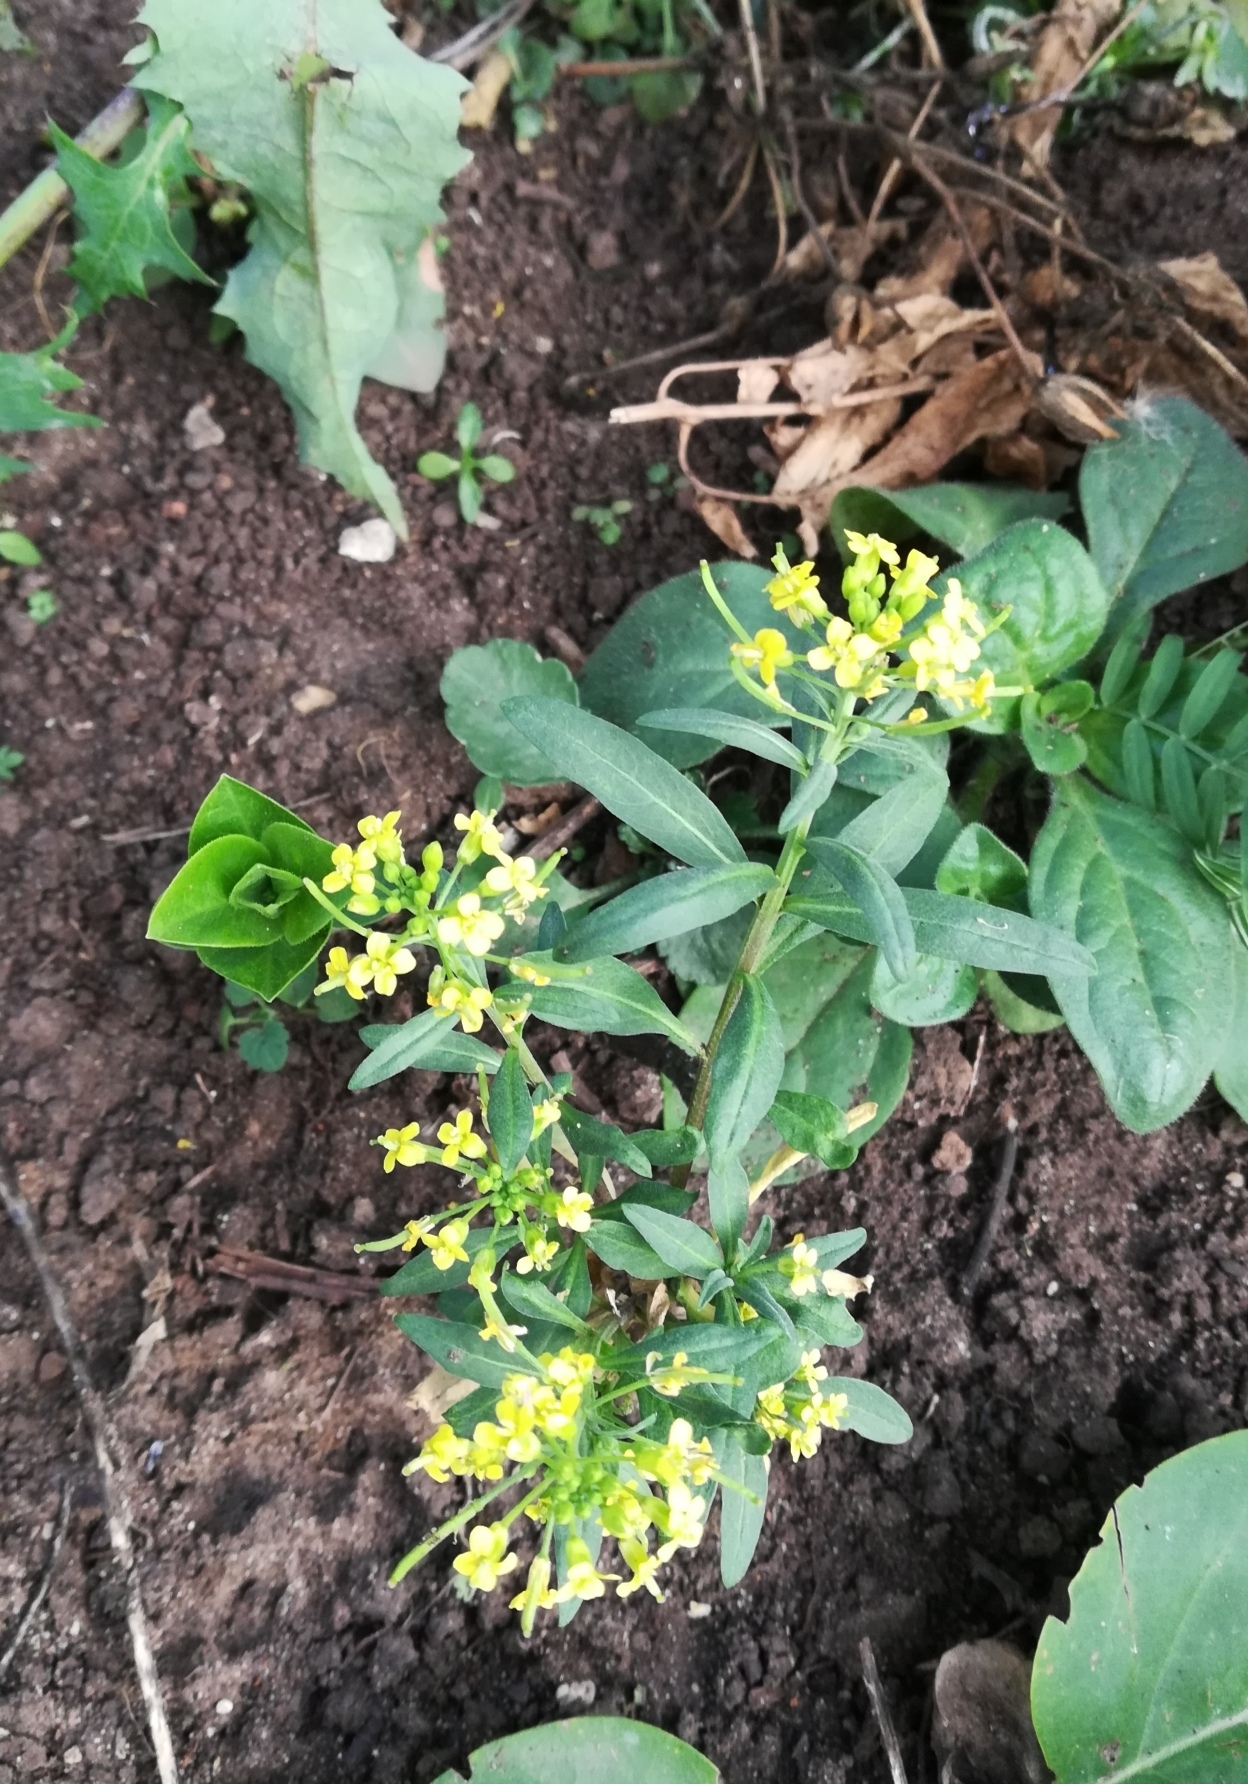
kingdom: Plantae
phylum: Tracheophyta
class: Magnoliopsida
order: Brassicales
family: Brassicaceae
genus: Erysimum
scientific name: Erysimum cheiranthoides
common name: Treacle mustard
